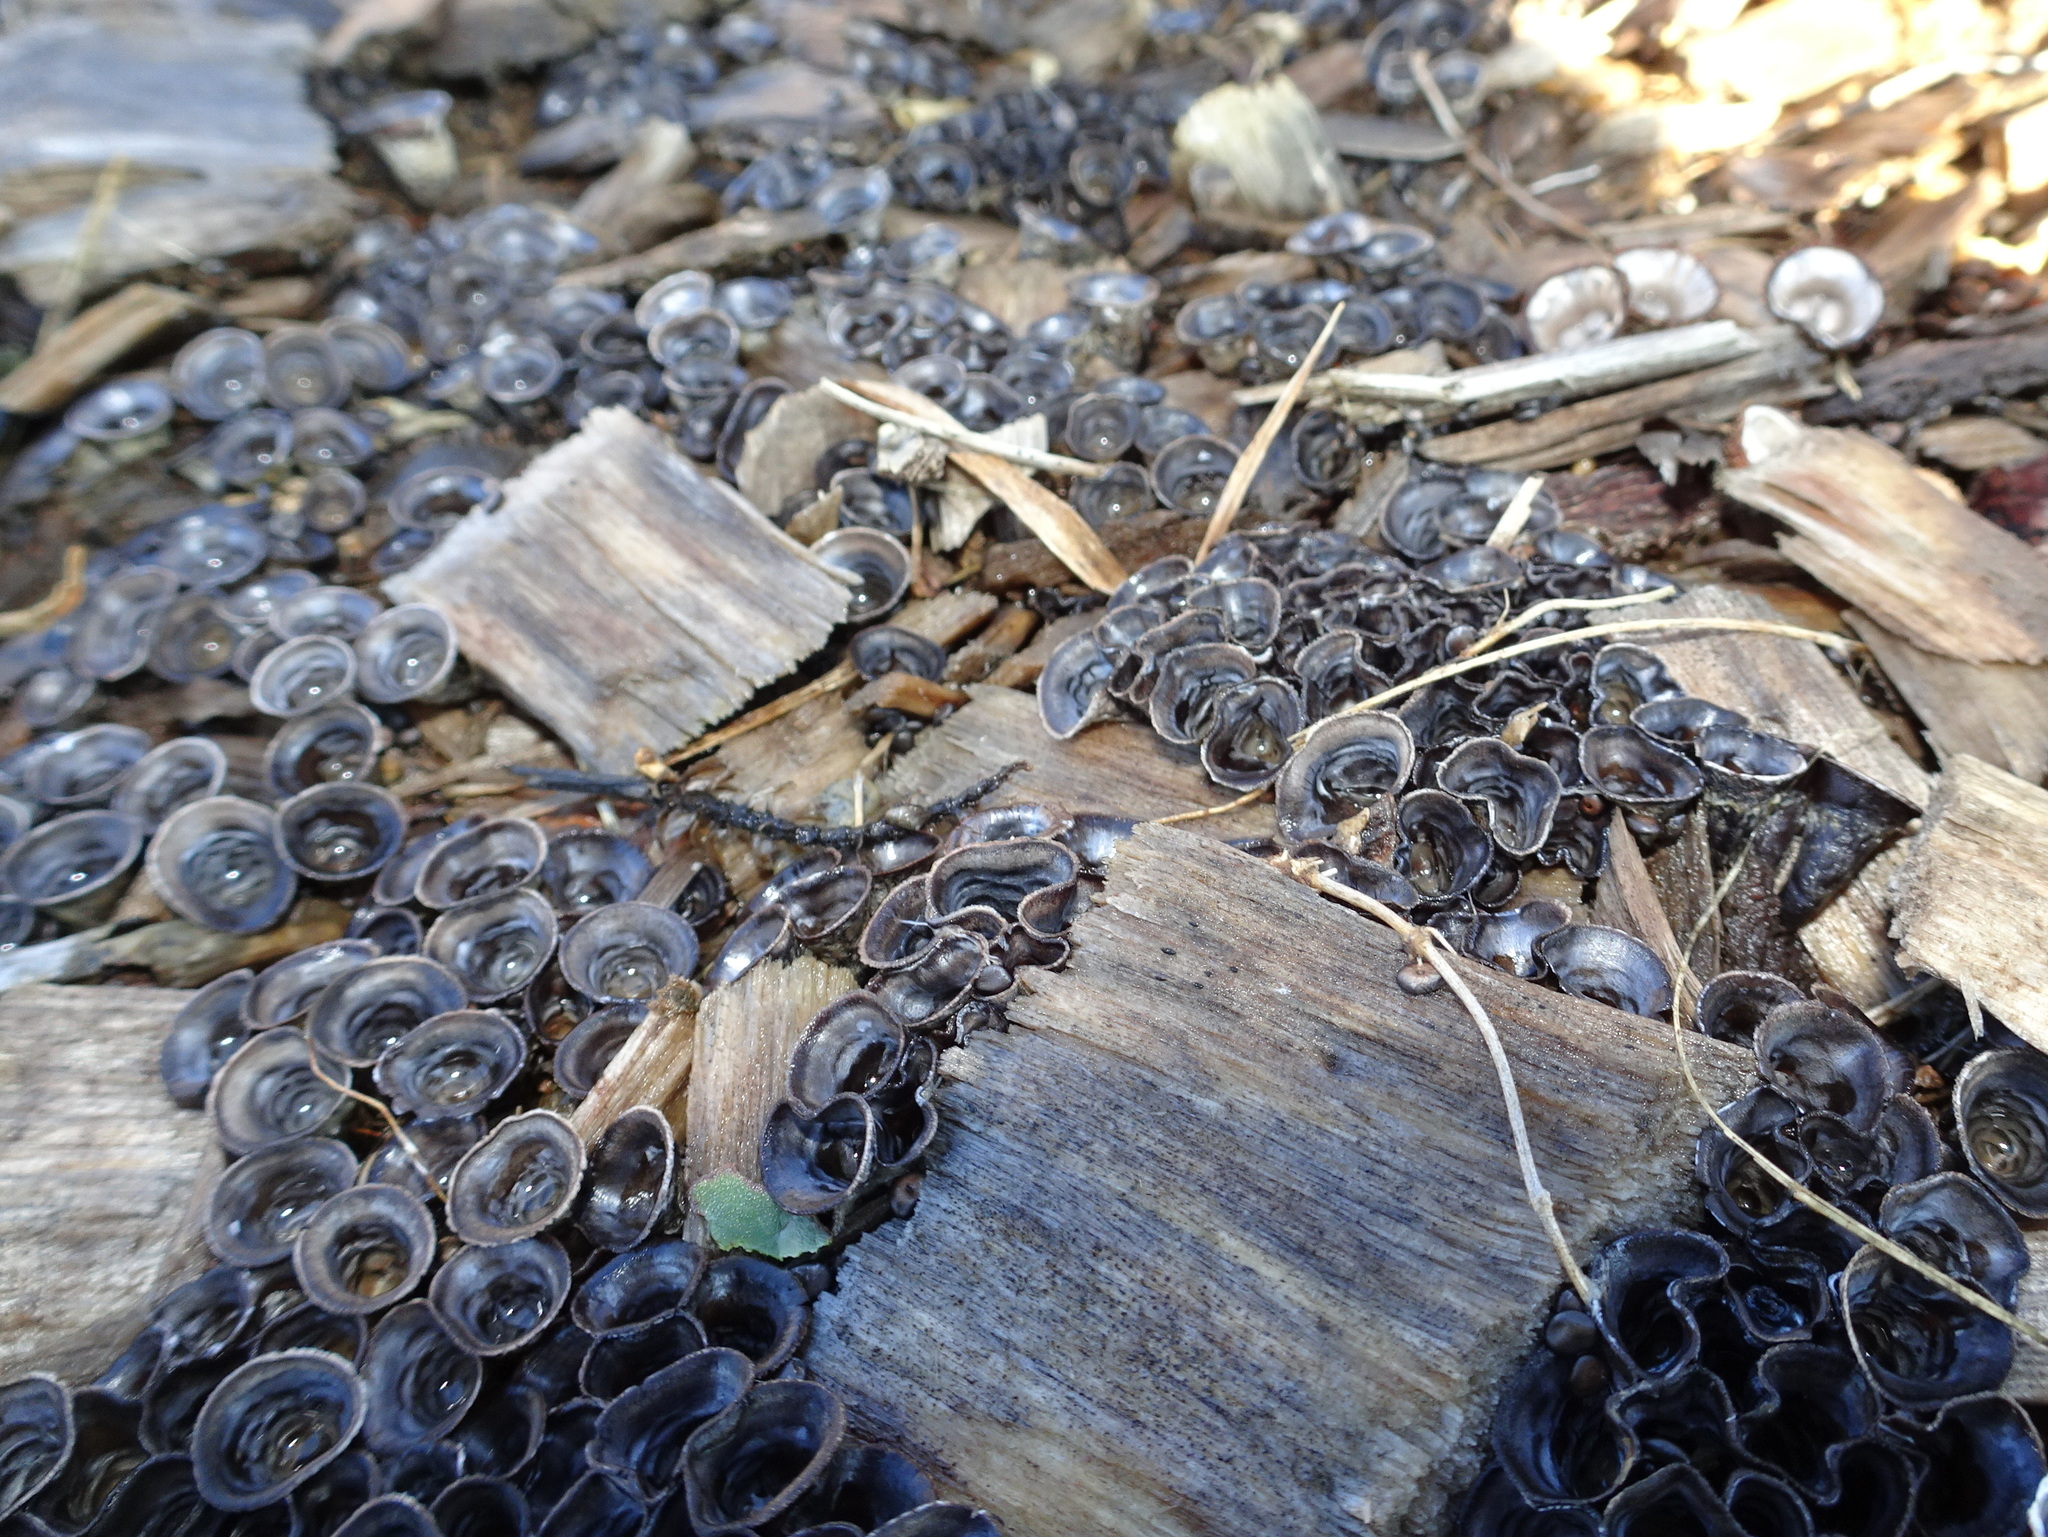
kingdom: Fungi
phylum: Basidiomycota
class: Agaricomycetes
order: Agaricales
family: Agaricaceae
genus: Cyathus
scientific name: Cyathus stercoreus
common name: Dung bird's nest
